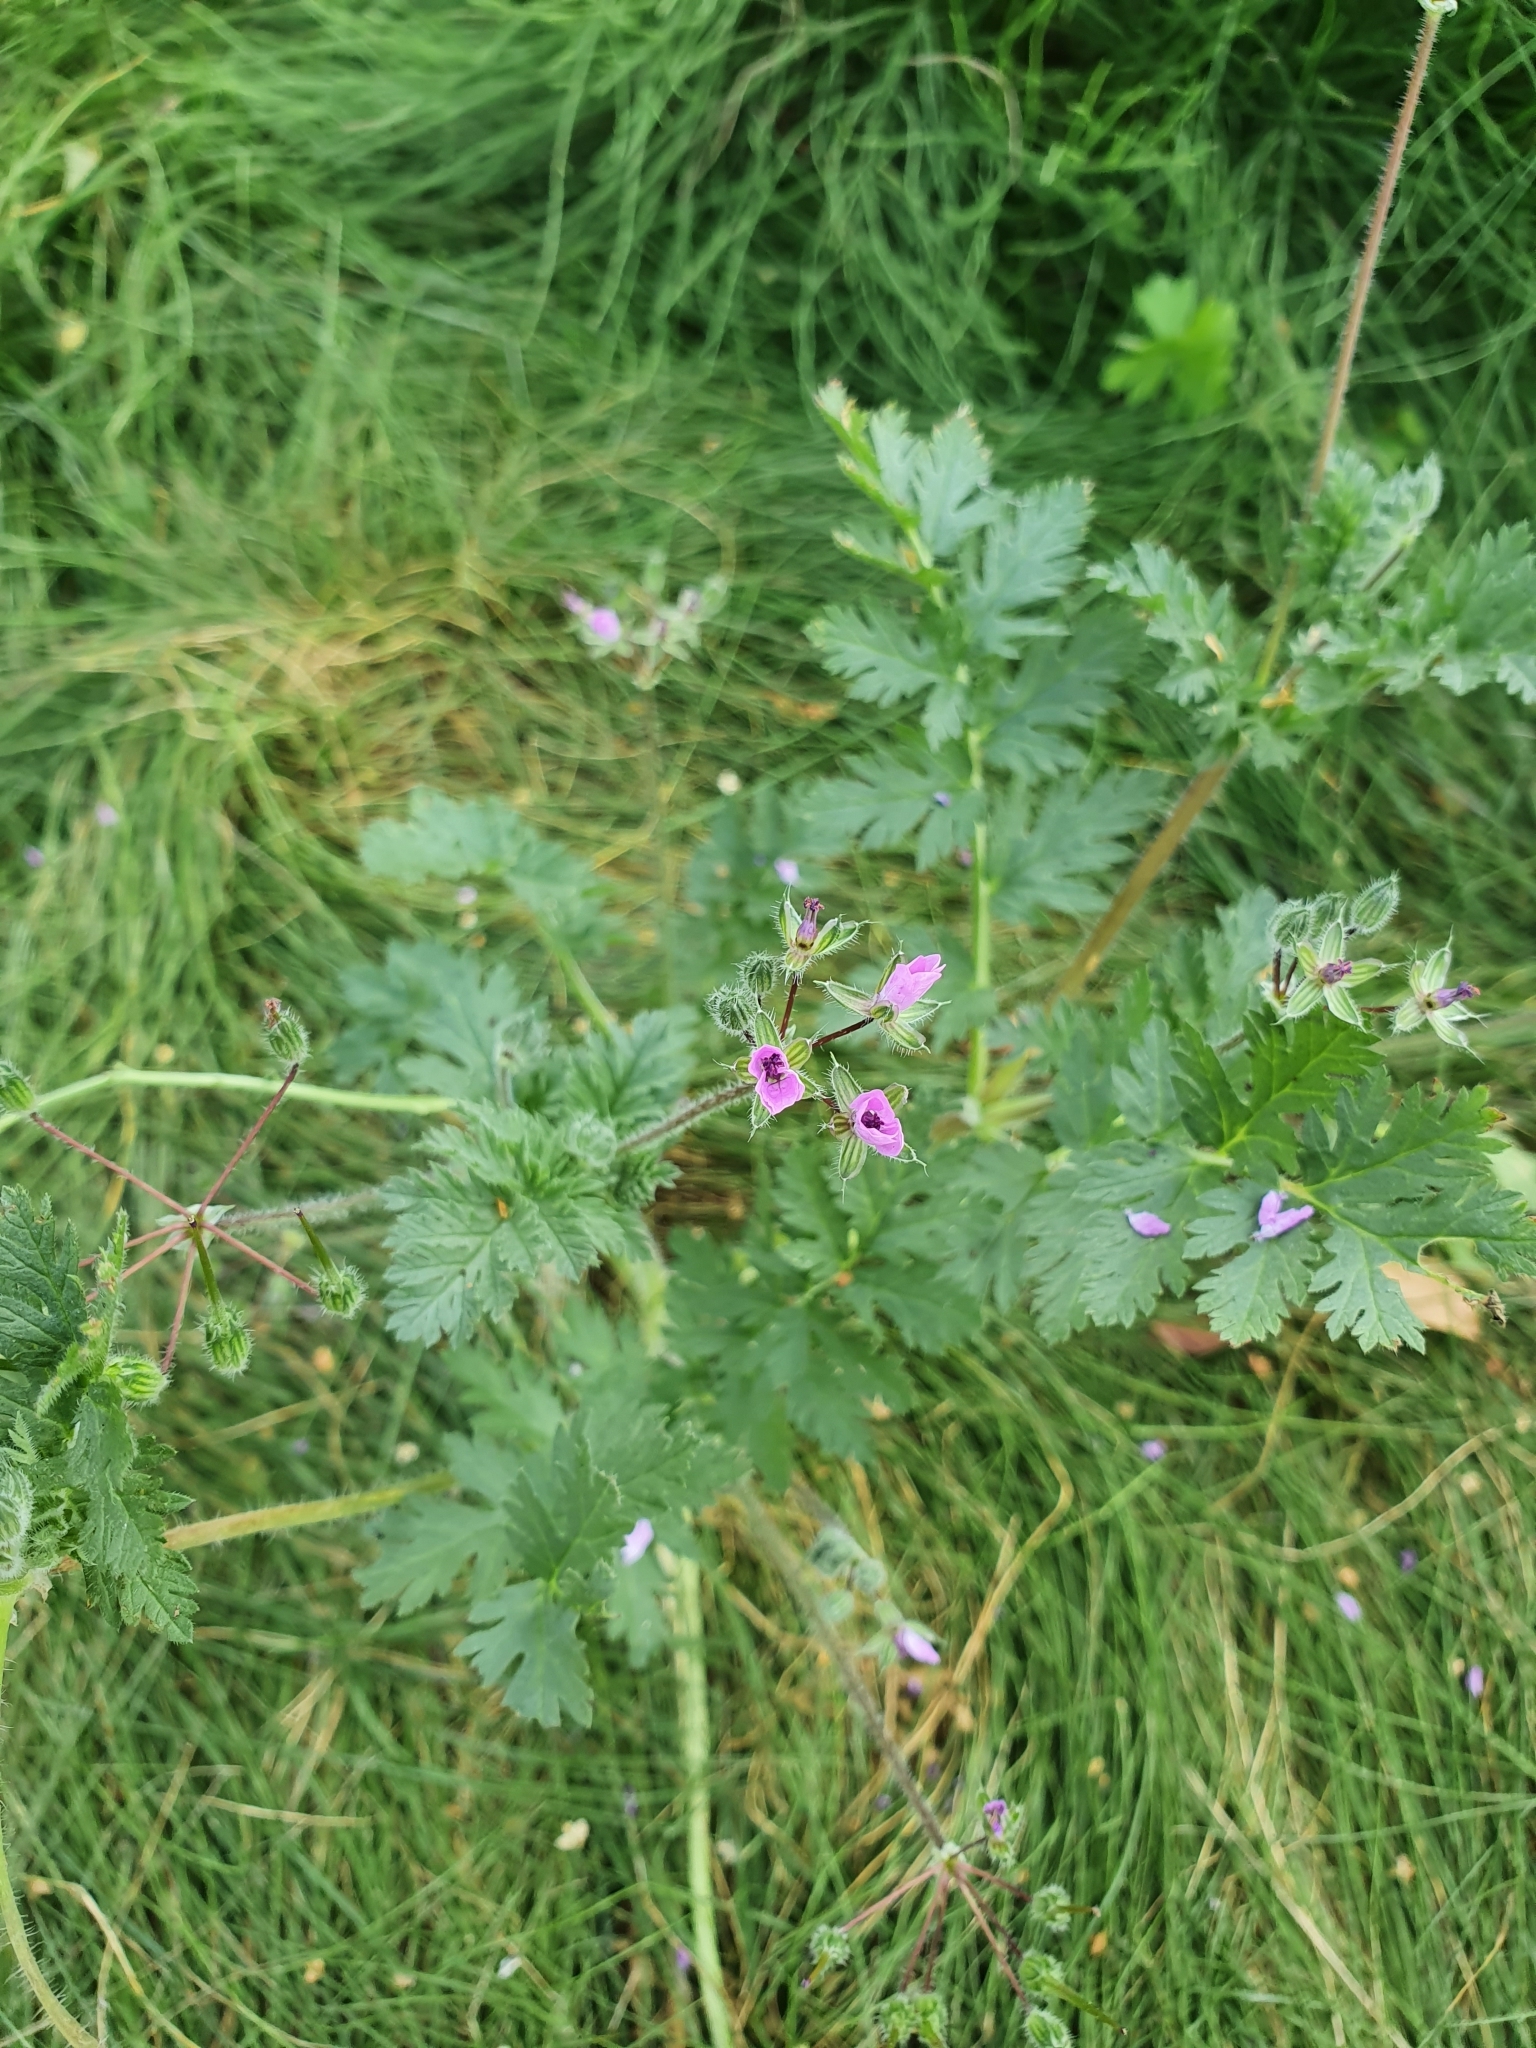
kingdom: Plantae
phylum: Tracheophyta
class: Magnoliopsida
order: Geraniales
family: Geraniaceae
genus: Erodium
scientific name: Erodium cicutarium
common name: Common stork's-bill
